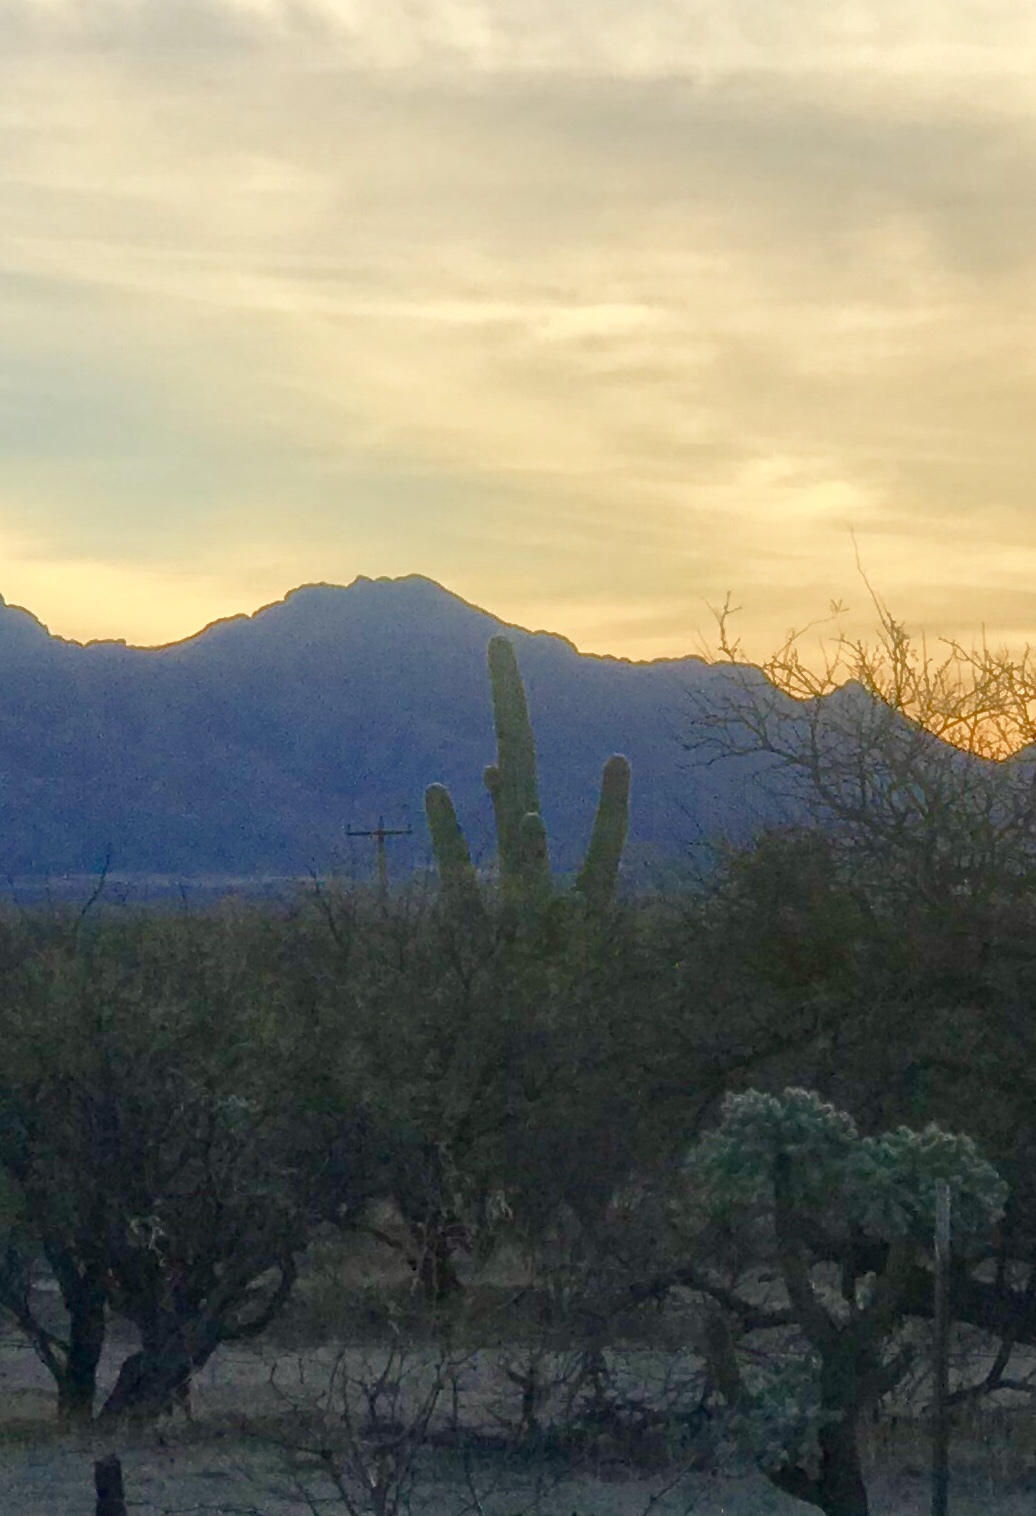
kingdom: Plantae
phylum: Tracheophyta
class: Magnoliopsida
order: Caryophyllales
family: Cactaceae
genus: Carnegiea
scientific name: Carnegiea gigantea
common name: Saguaro
